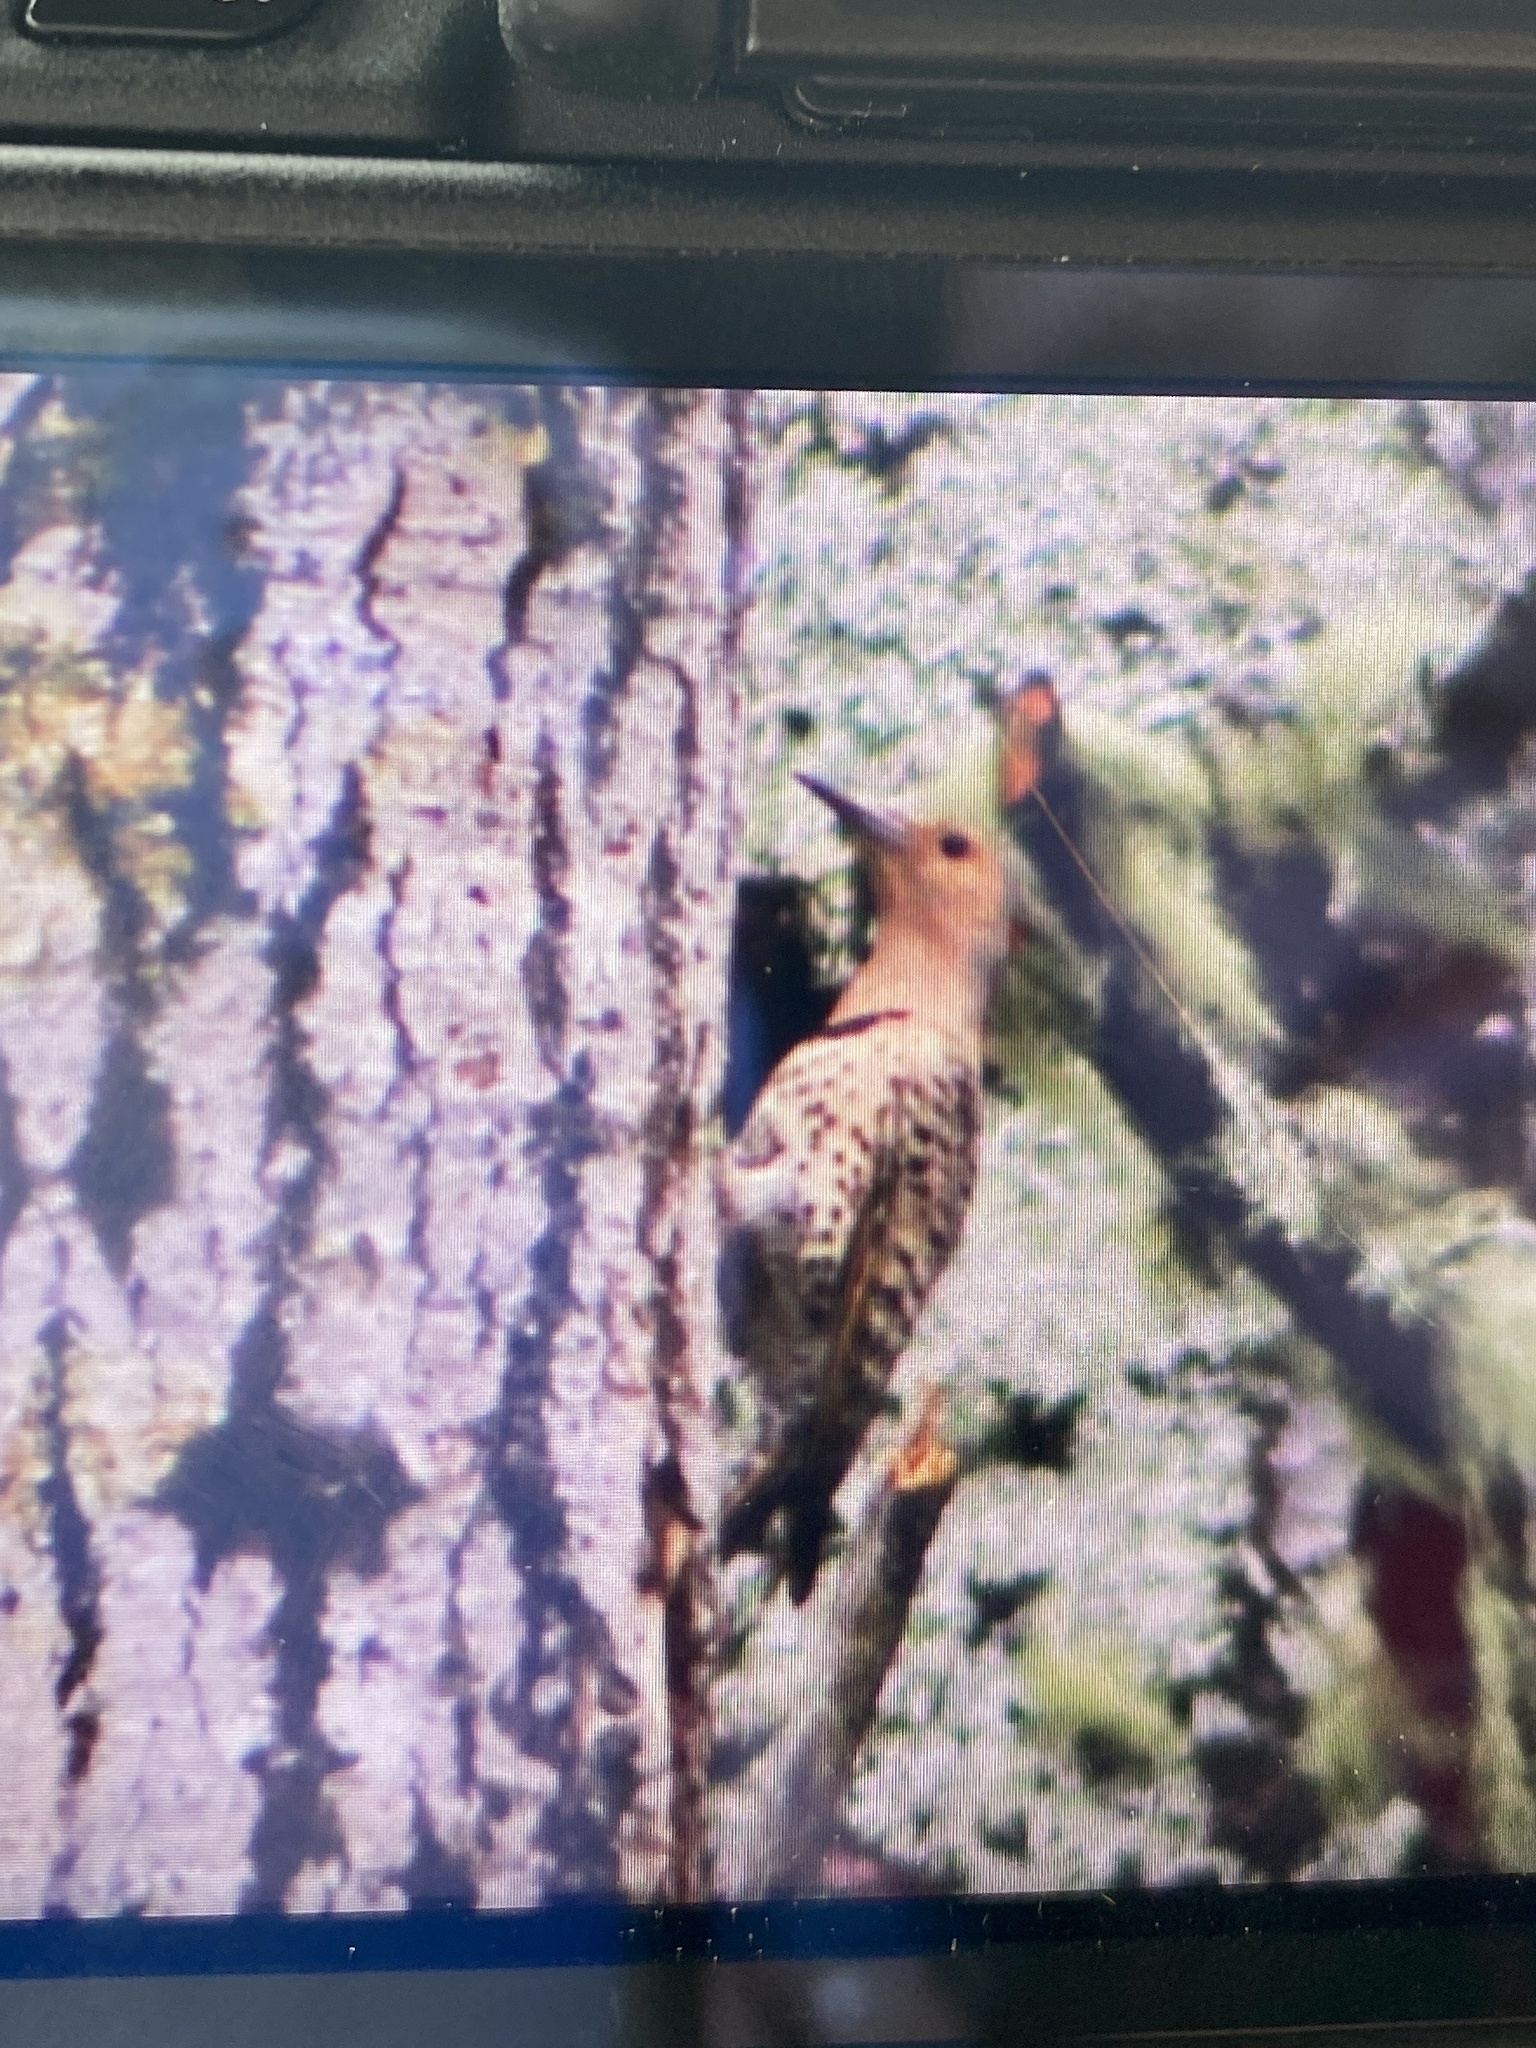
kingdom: Animalia
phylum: Chordata
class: Aves
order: Piciformes
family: Picidae
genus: Colaptes
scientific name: Colaptes auratus
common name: Northern flicker
